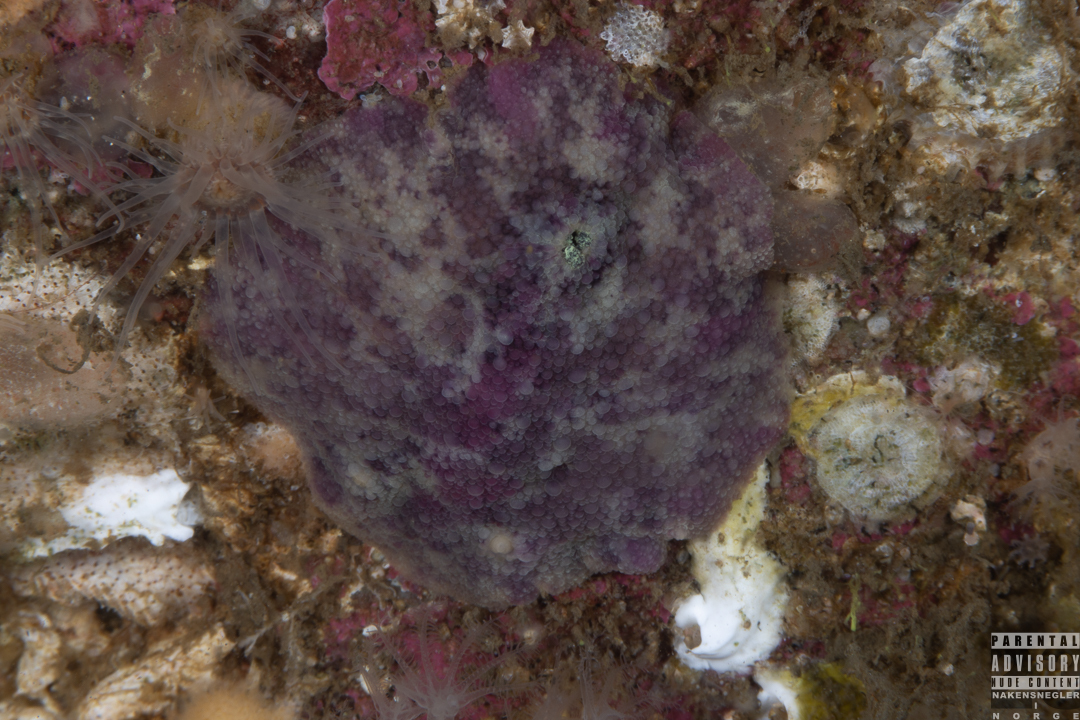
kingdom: Animalia
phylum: Mollusca
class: Gastropoda
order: Nudibranchia
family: Dorididae
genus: Doris
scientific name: Doris pseudoargus
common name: Sea lemon
